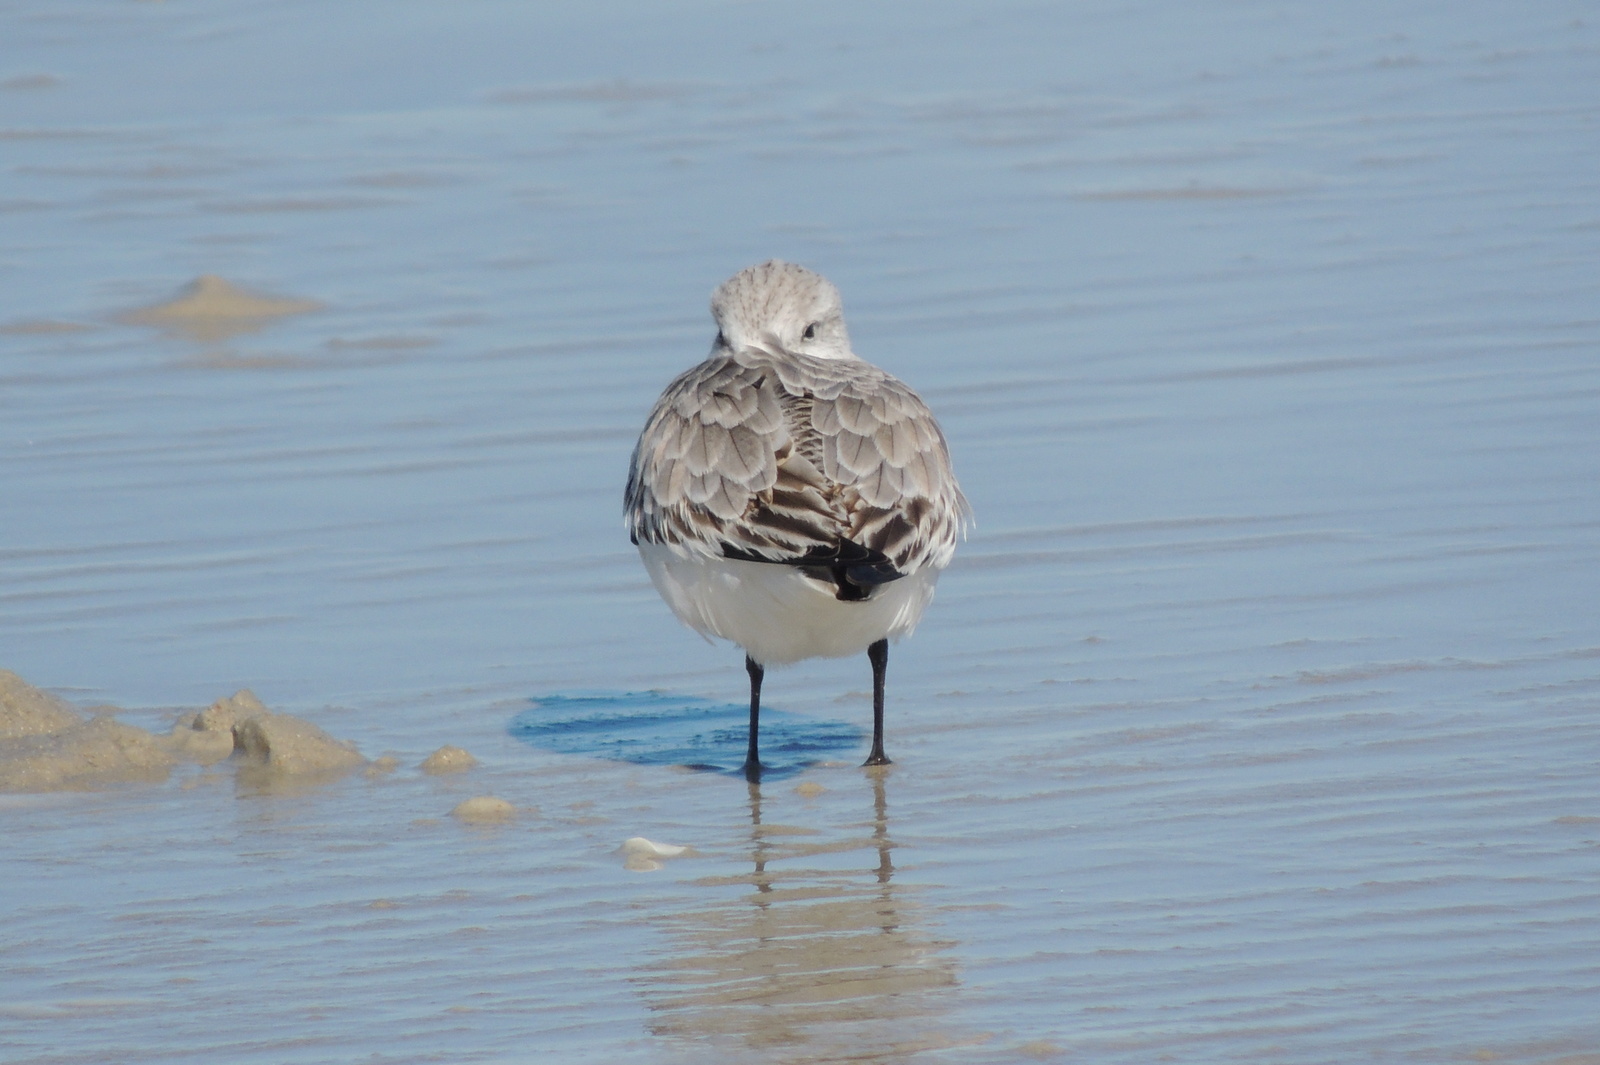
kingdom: Animalia
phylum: Chordata
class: Aves
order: Charadriiformes
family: Scolopacidae
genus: Calidris
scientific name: Calidris alba
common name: Sanderling
